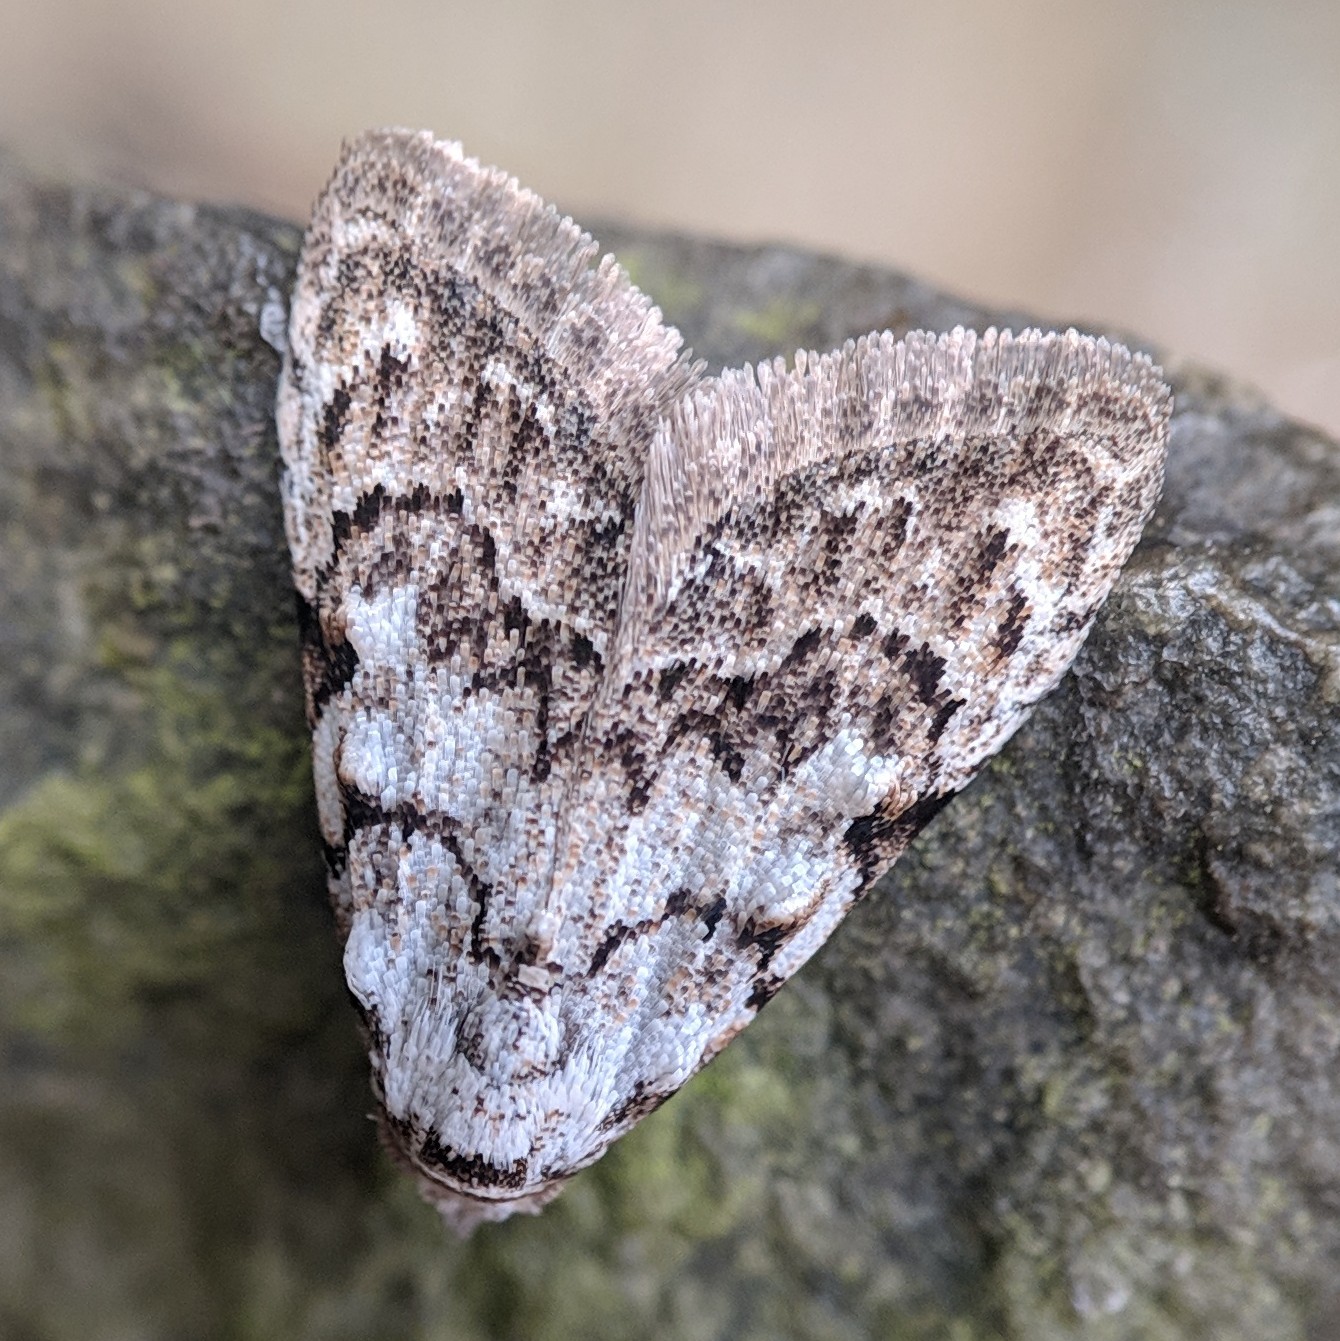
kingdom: Animalia
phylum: Arthropoda
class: Insecta
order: Lepidoptera
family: Nolidae
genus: Nola
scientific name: Nola confusalis
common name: Least black arches
